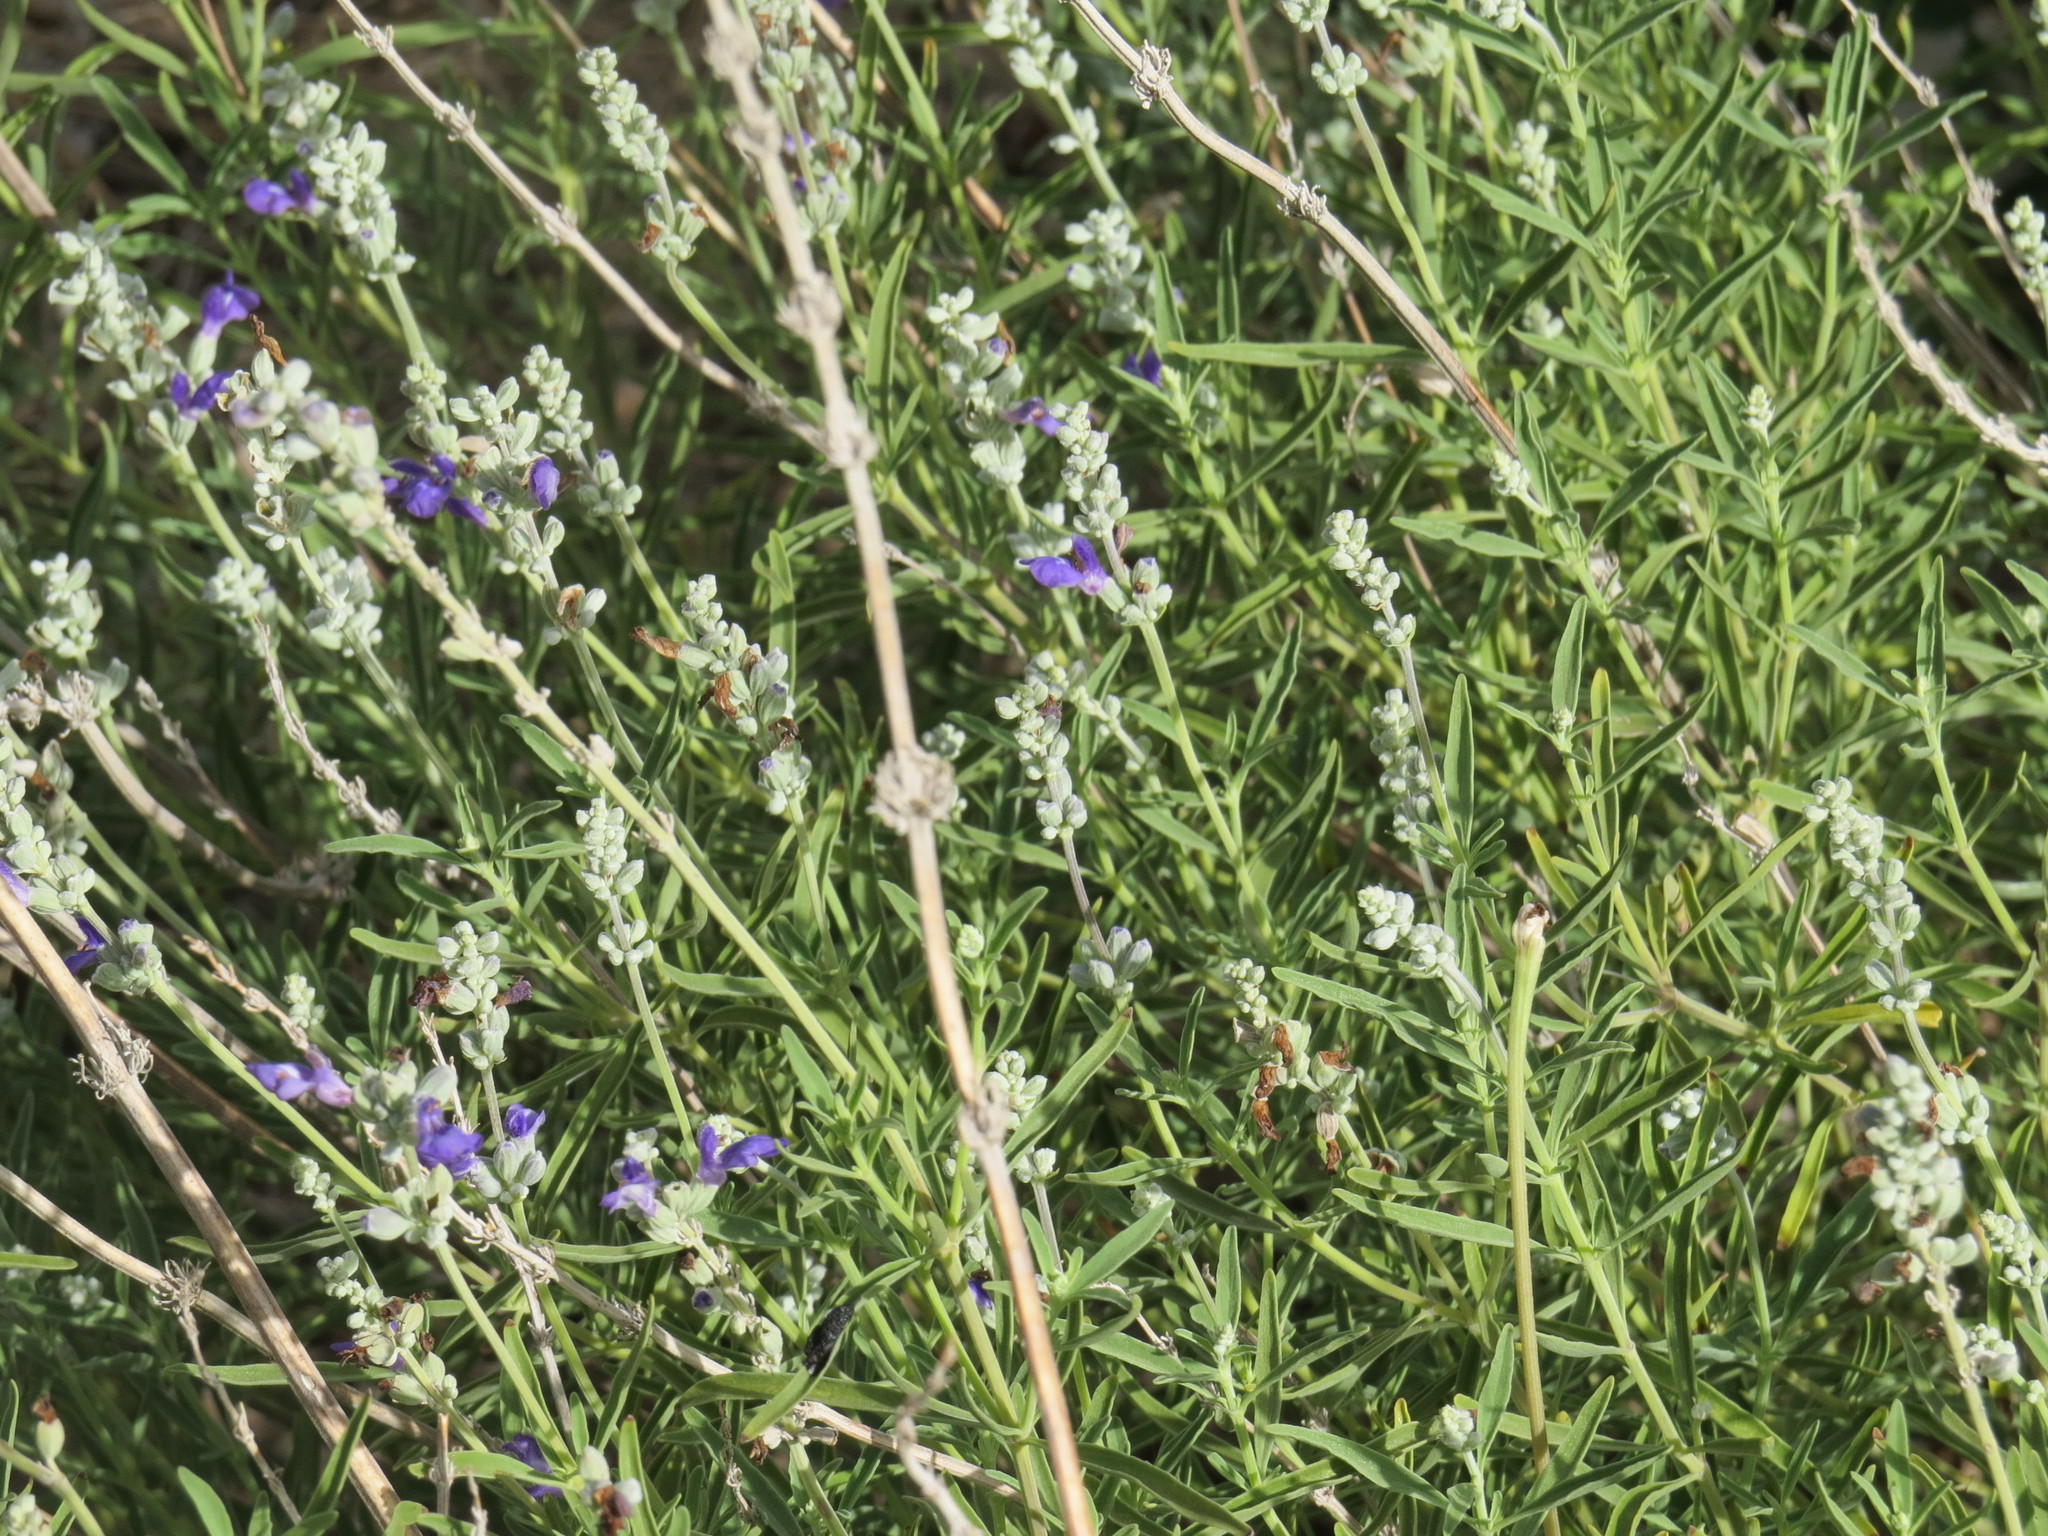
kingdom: Plantae
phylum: Tracheophyta
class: Magnoliopsida
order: Lamiales
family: Lamiaceae
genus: Salvia
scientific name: Salvia farinacea
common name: Mealy sage
